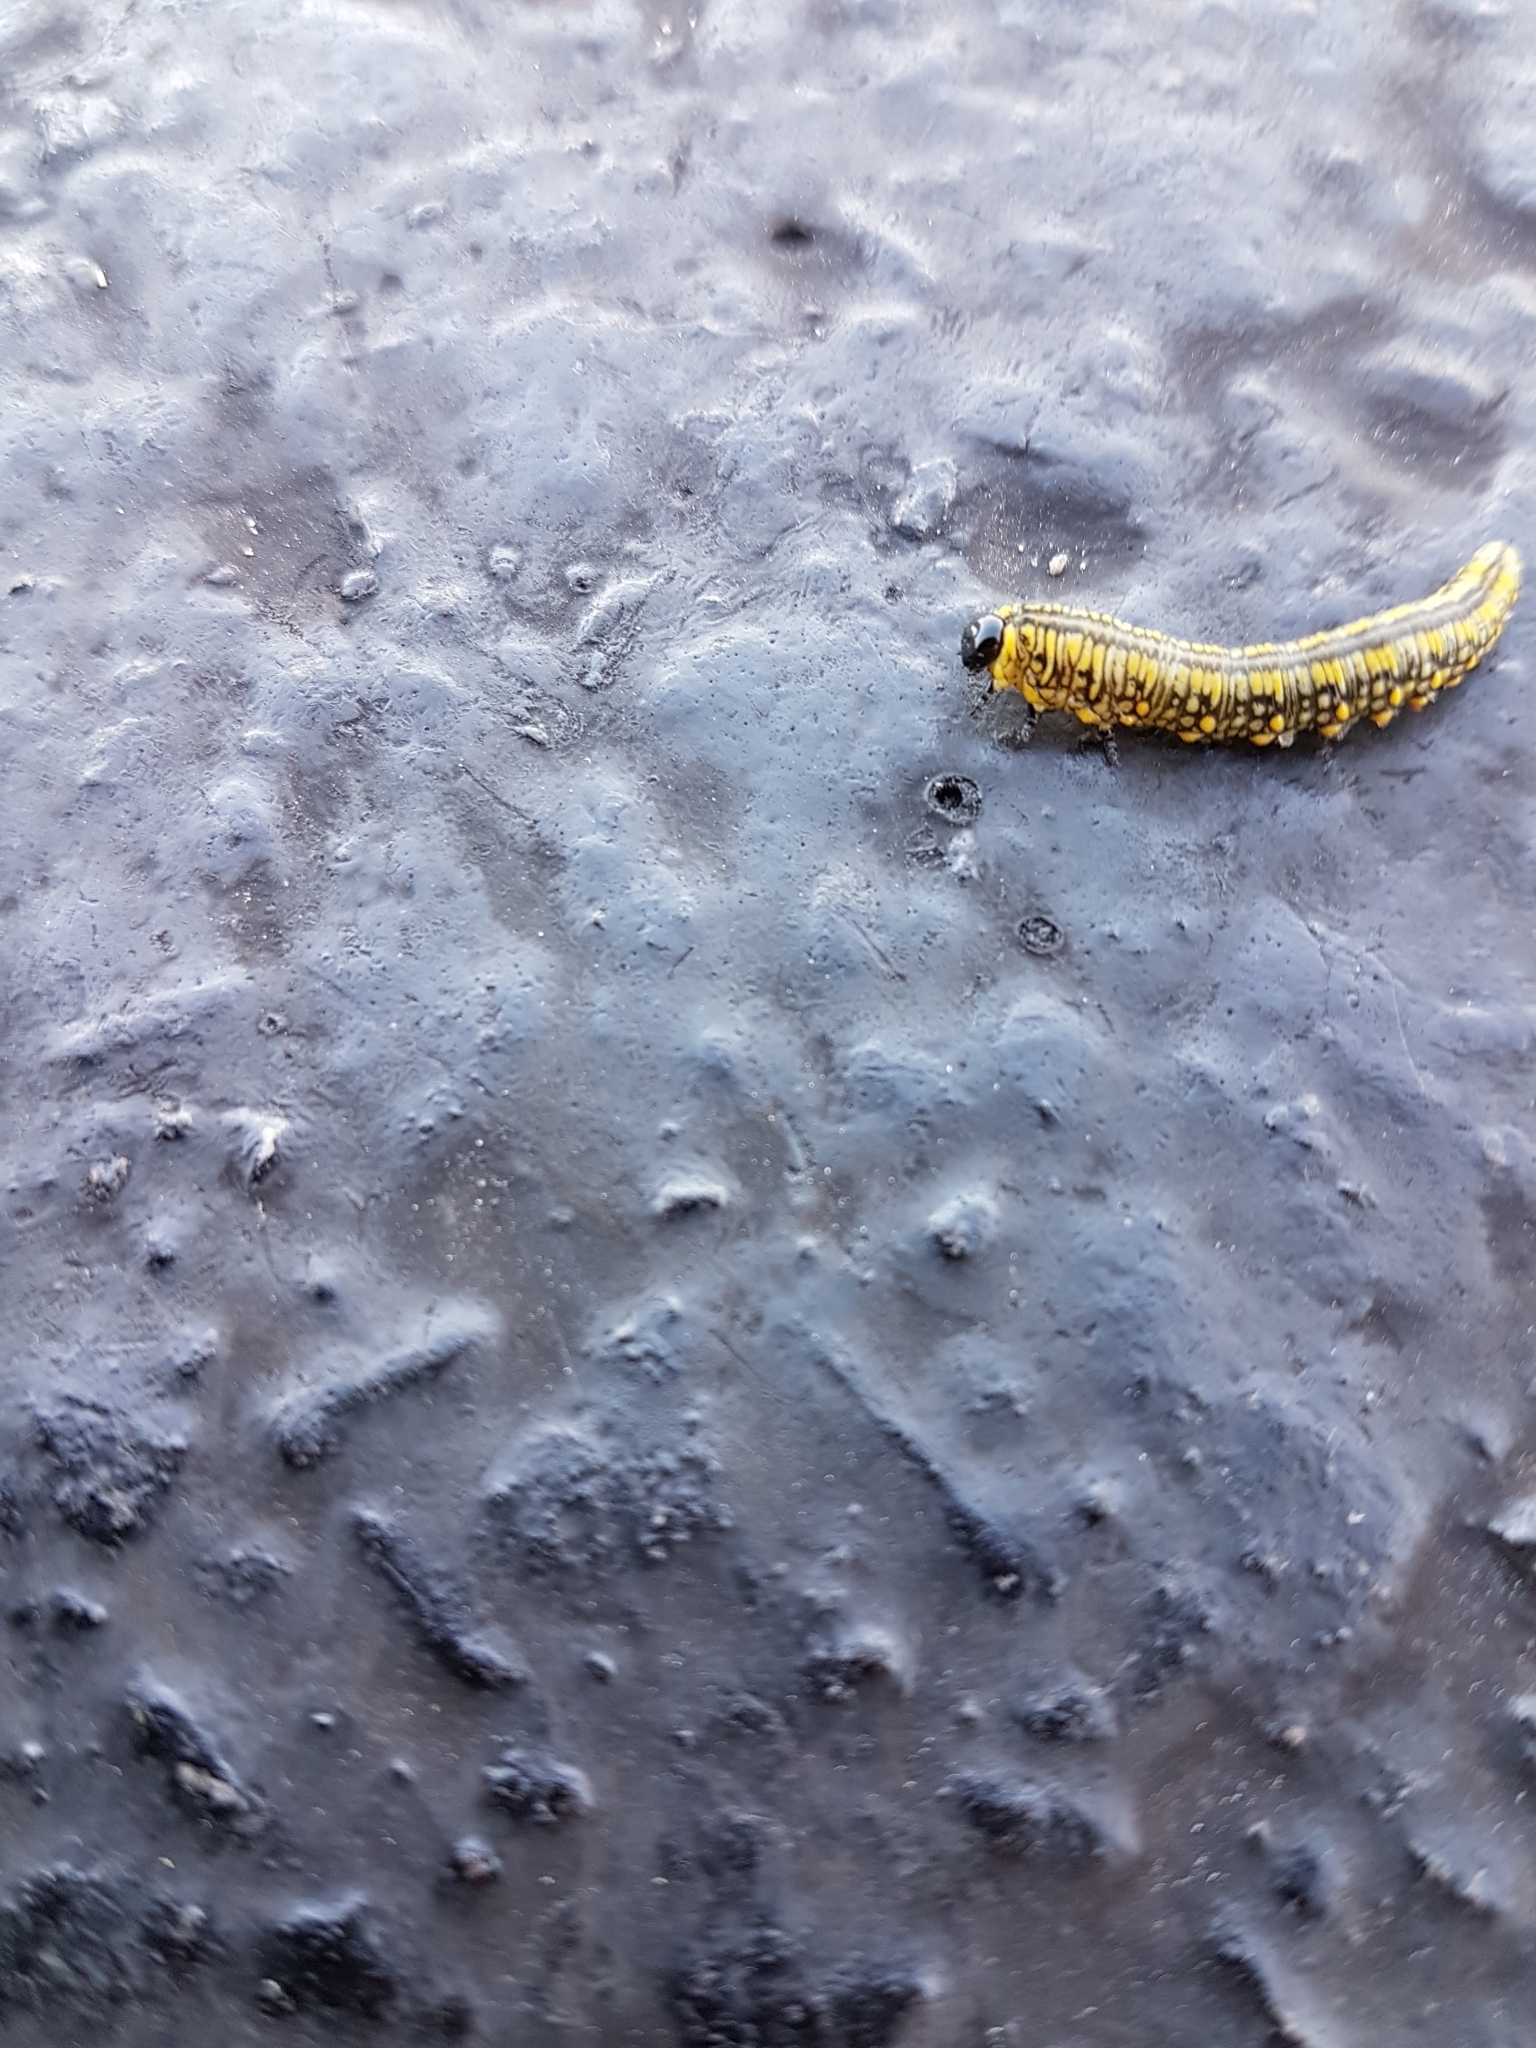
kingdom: Animalia
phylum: Arthropoda
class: Insecta
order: Hymenoptera
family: Diprionidae
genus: Diprion
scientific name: Diprion similis
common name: Pine sawfly
